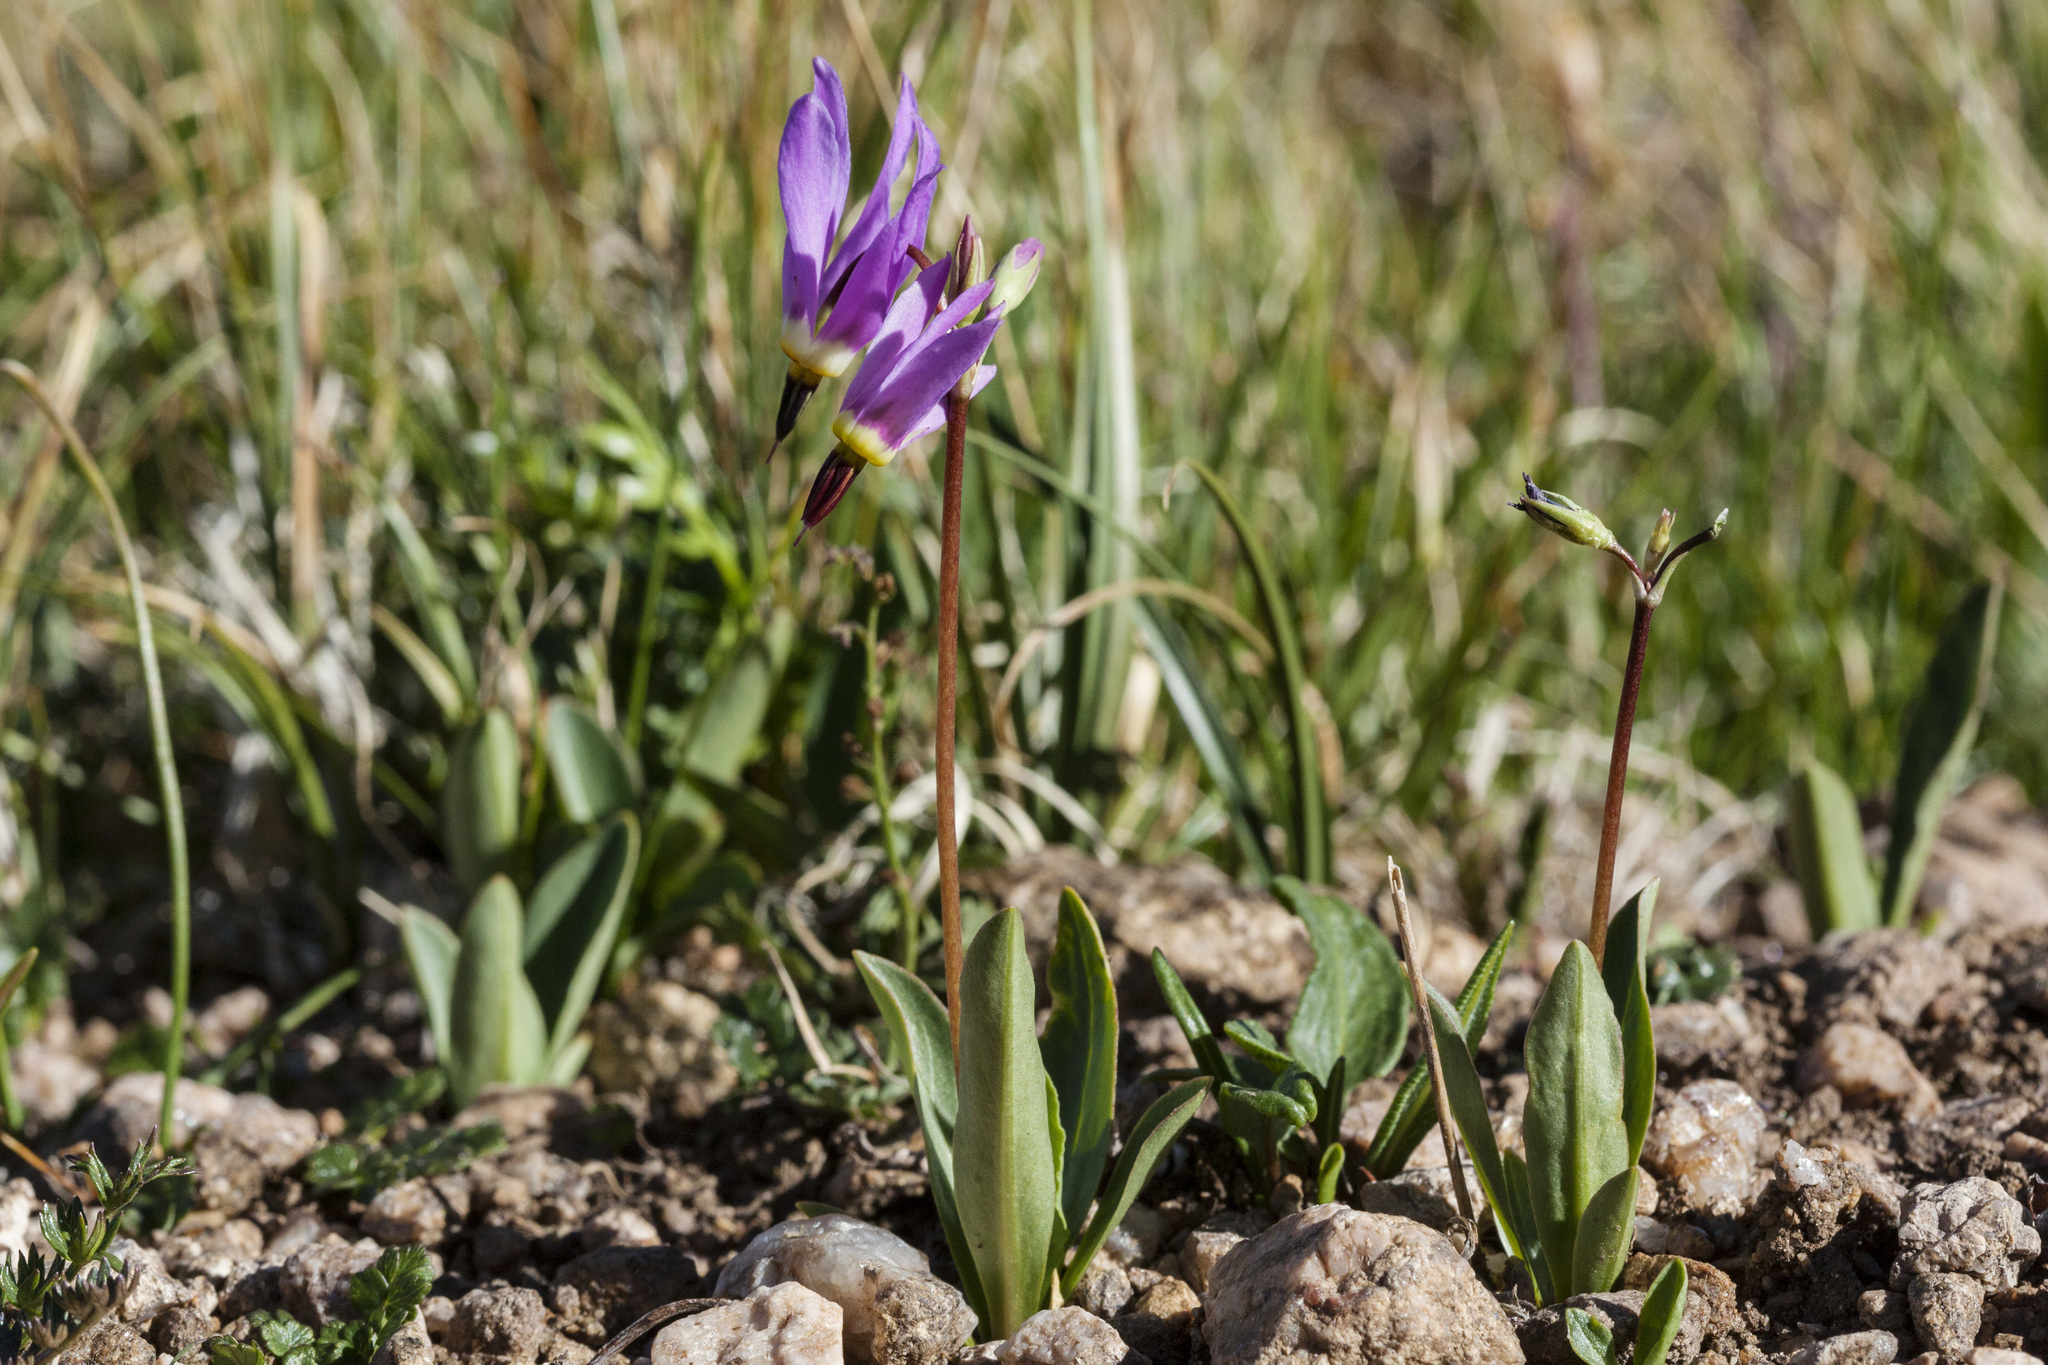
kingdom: Plantae
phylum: Tracheophyta
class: Magnoliopsida
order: Ericales
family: Primulaceae
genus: Dodecatheon
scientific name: Dodecatheon pulchellum
